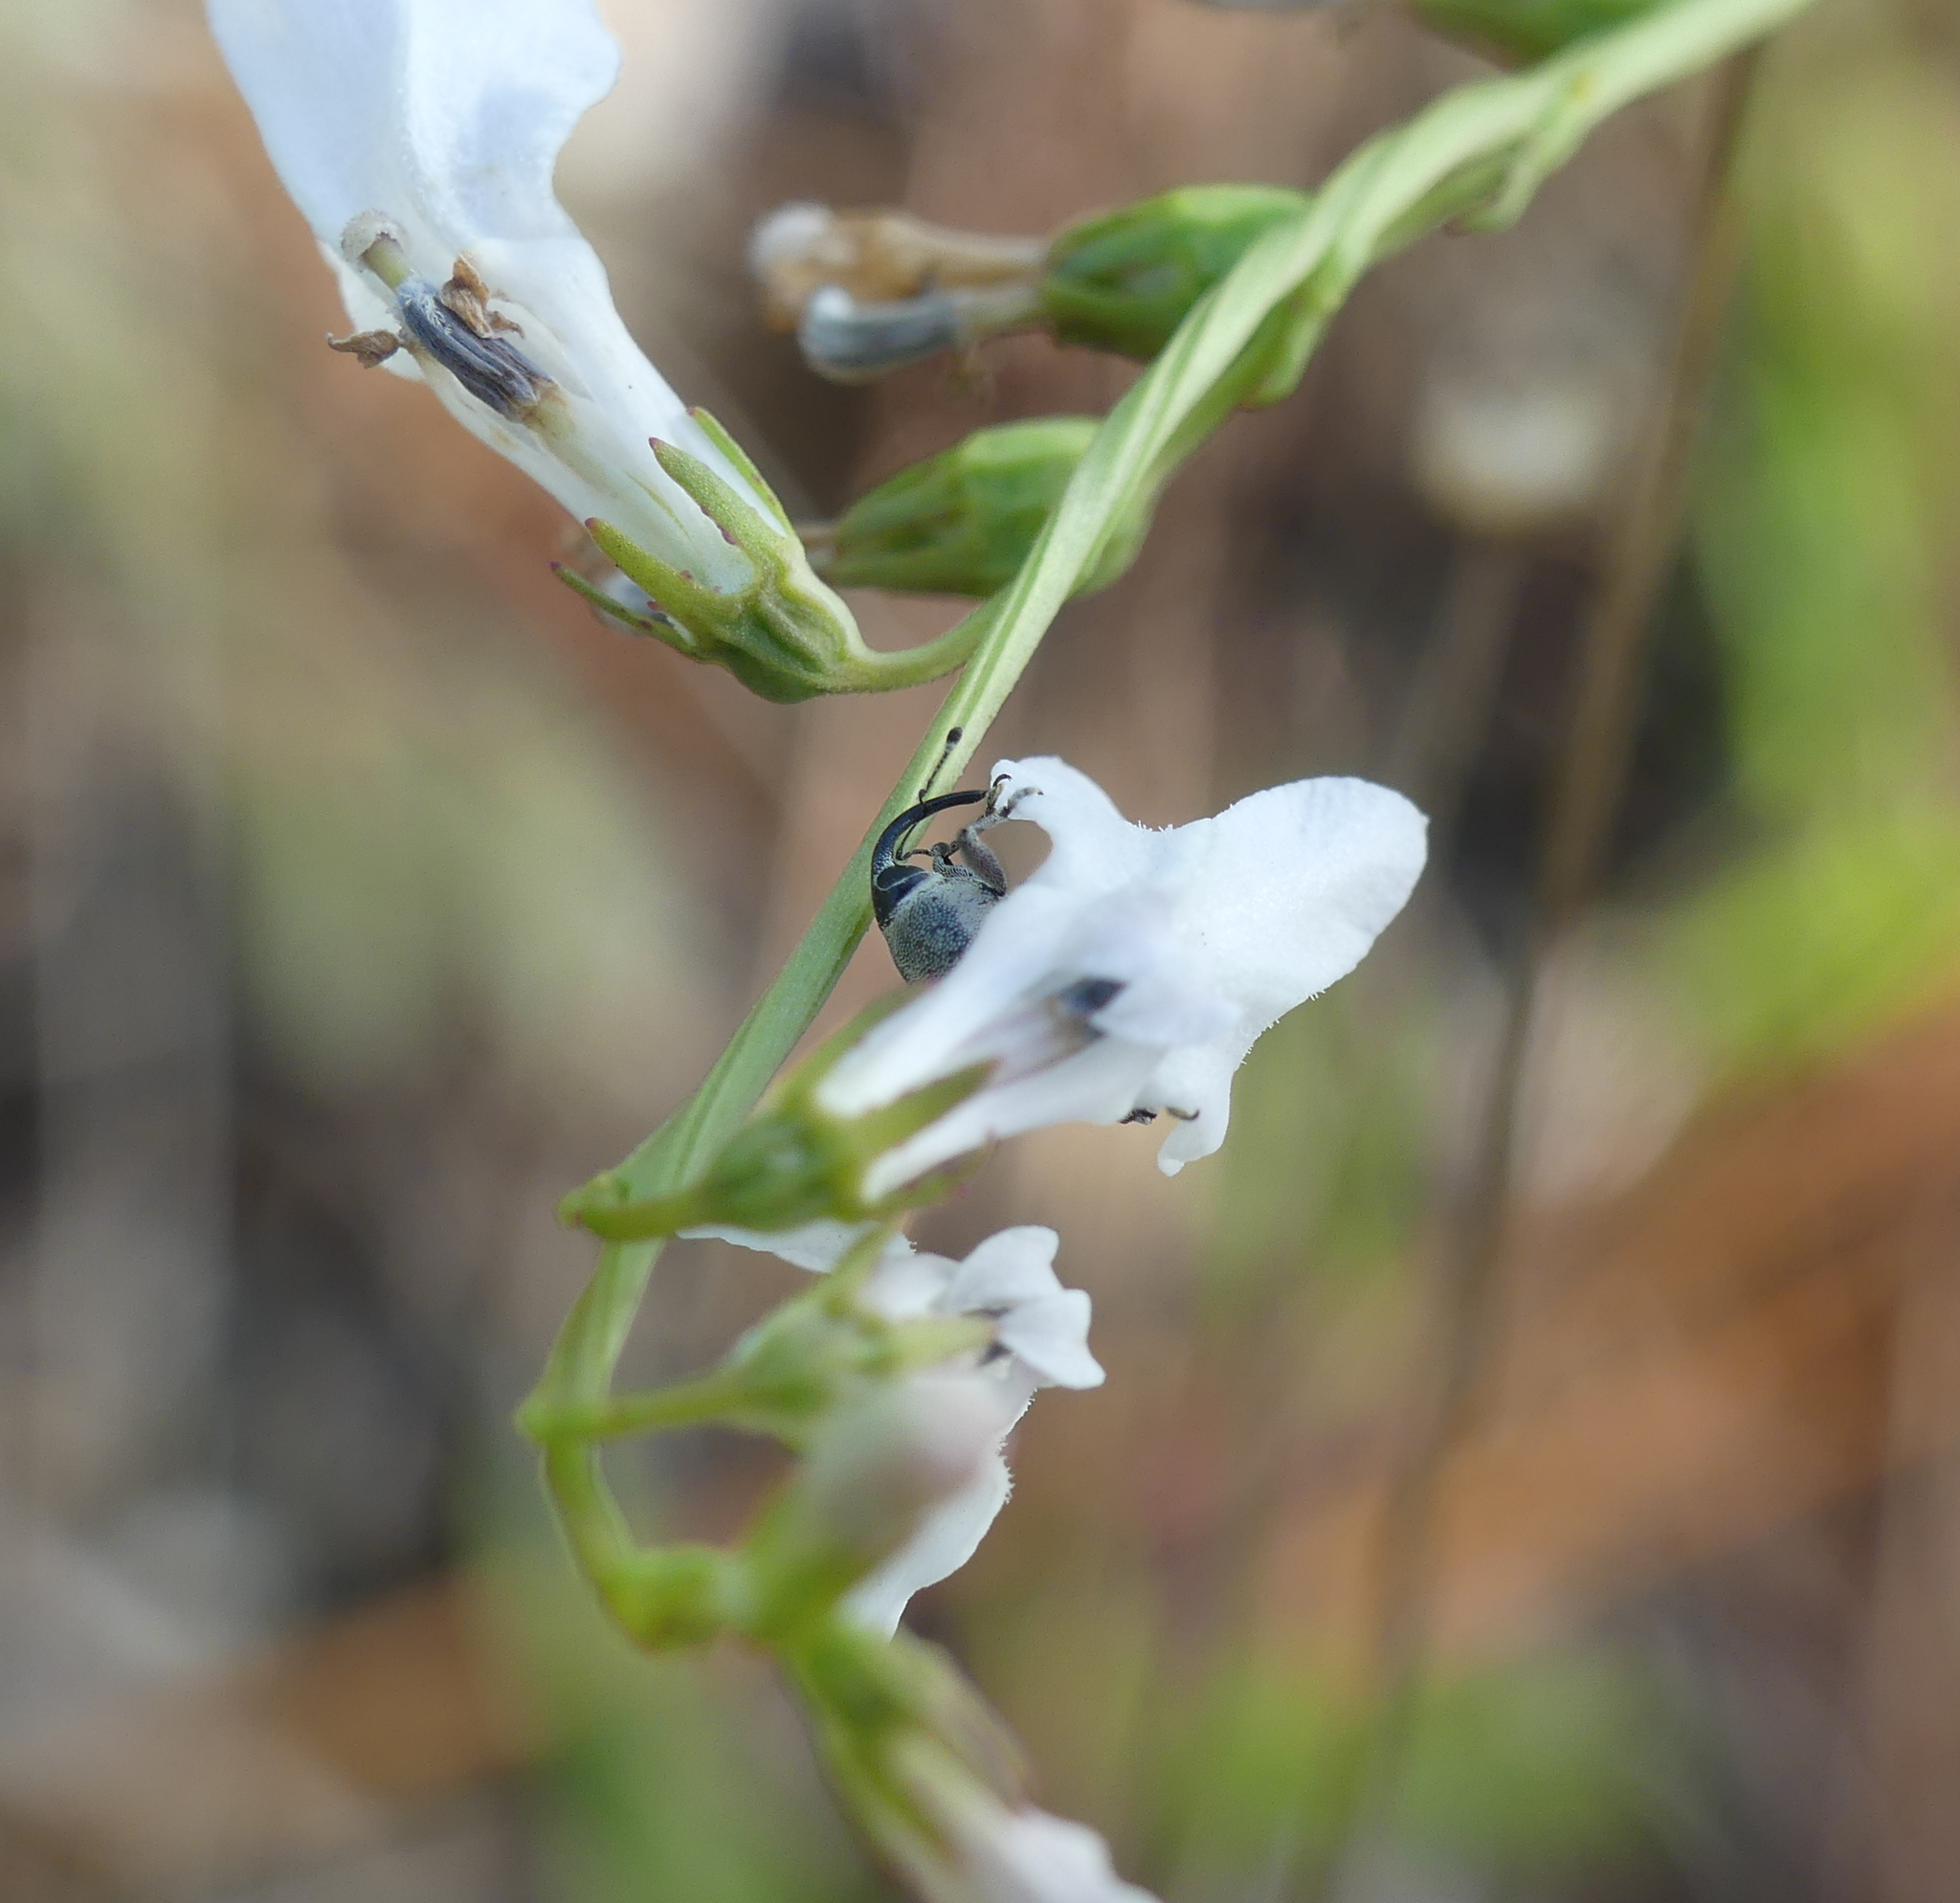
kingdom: Animalia
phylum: Arthropoda
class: Insecta
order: Coleoptera
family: Curculionidae
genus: Odontocorynus
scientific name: Odontocorynus larvatus
